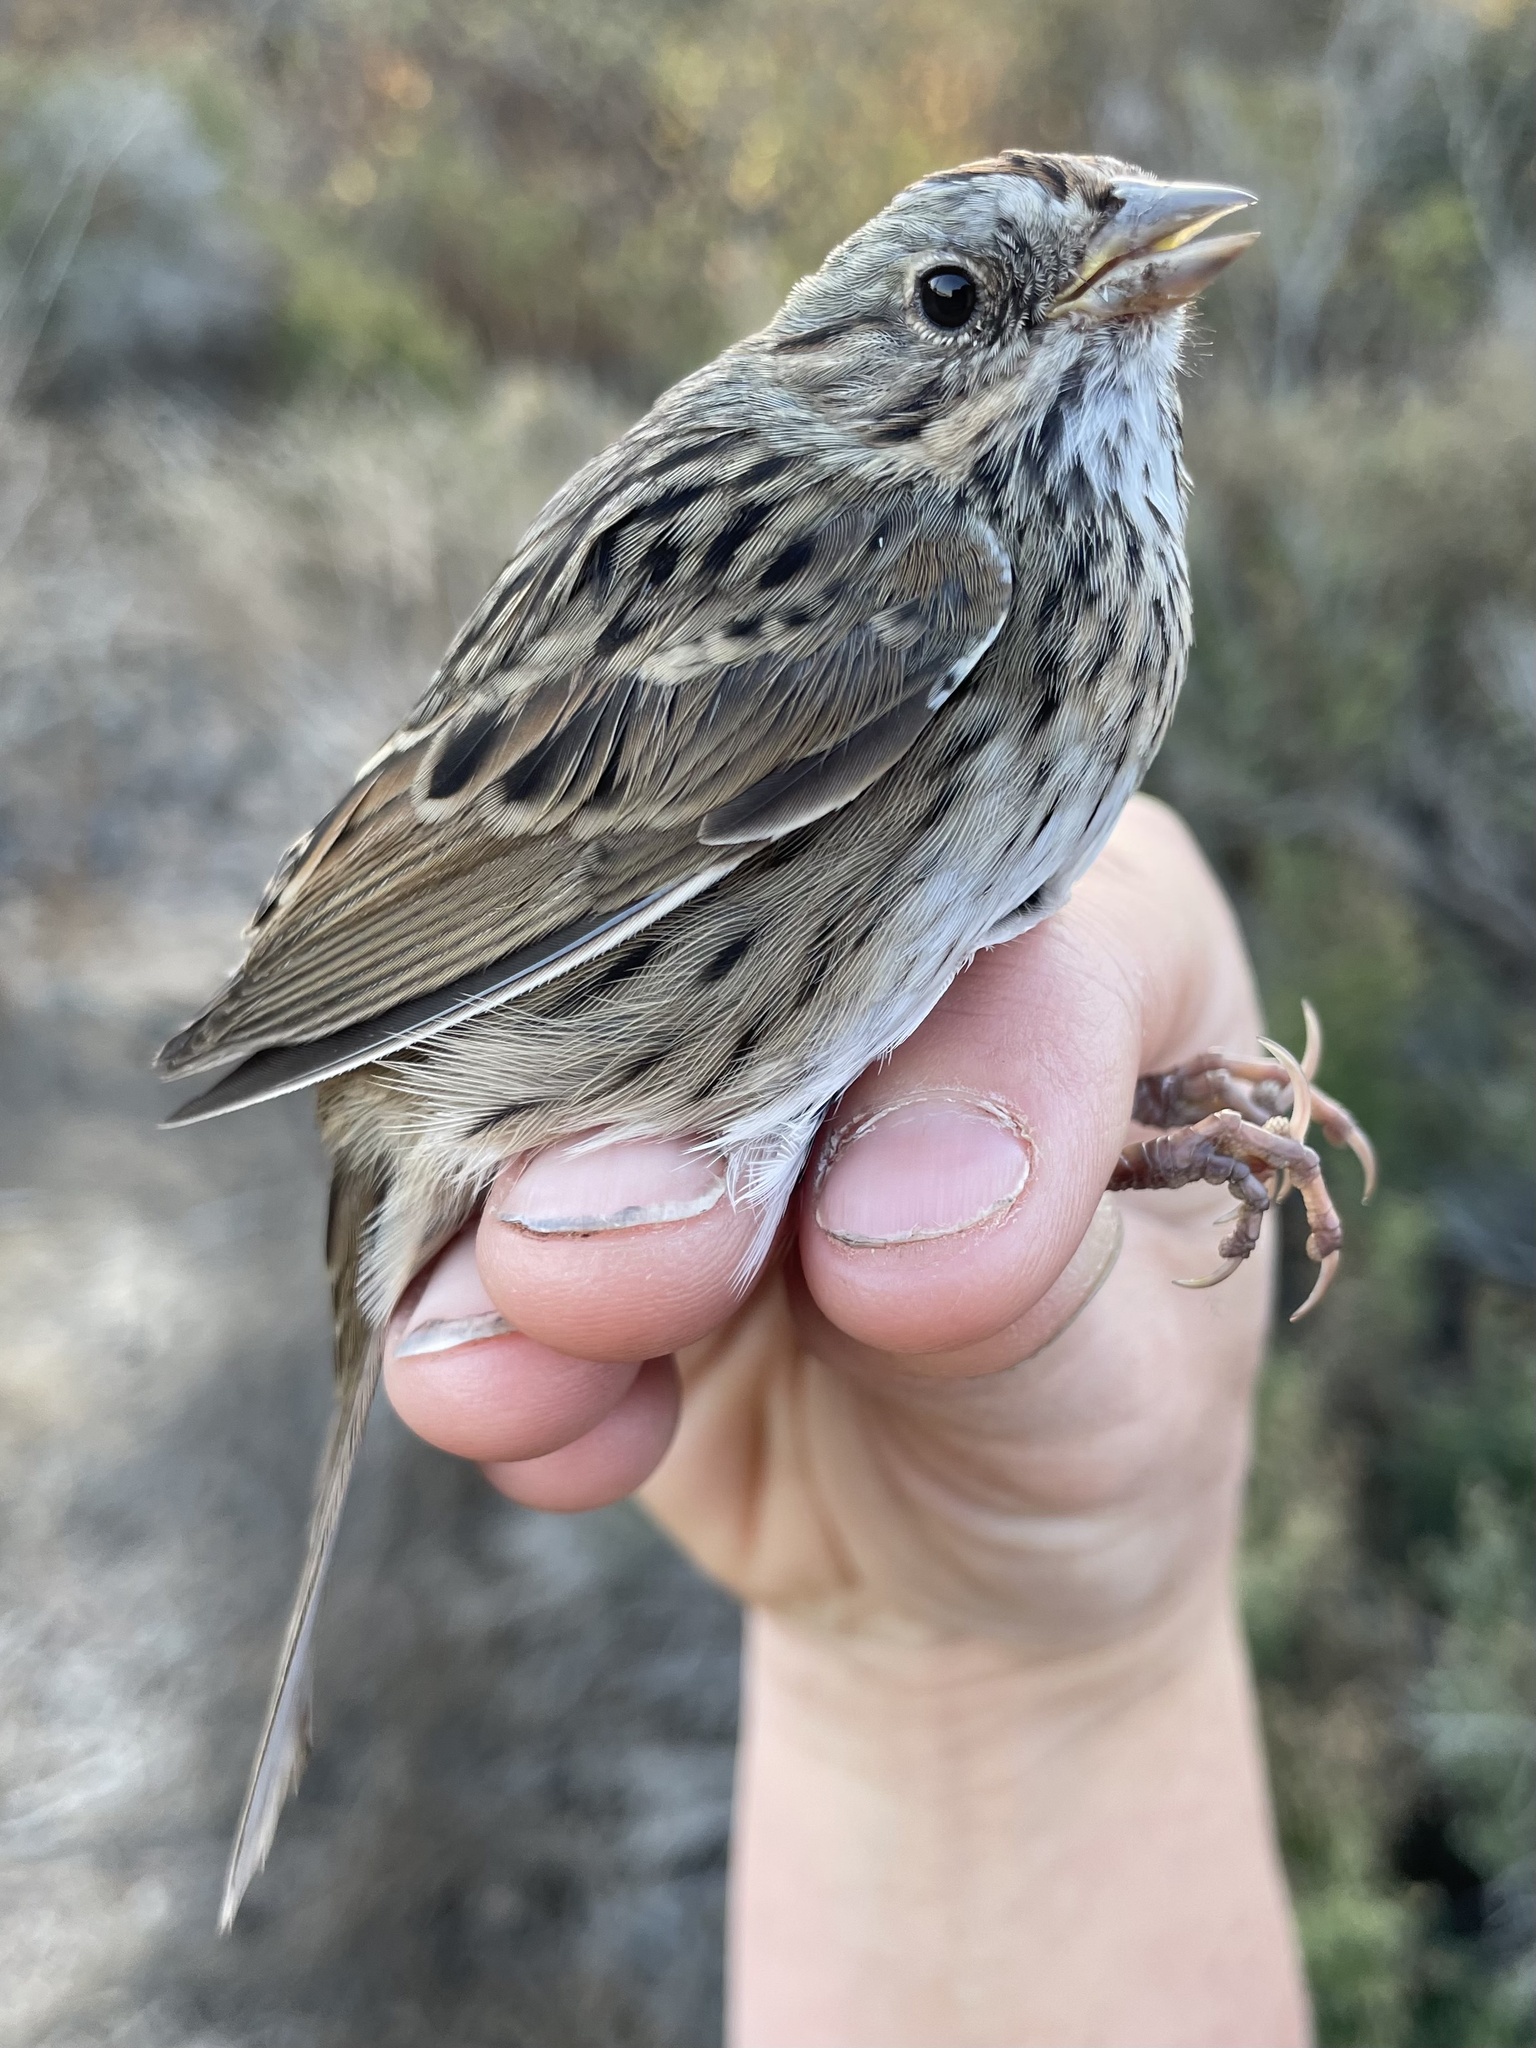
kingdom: Animalia
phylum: Chordata
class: Aves
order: Passeriformes
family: Passerellidae
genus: Melospiza
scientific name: Melospiza lincolnii
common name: Lincoln's sparrow
